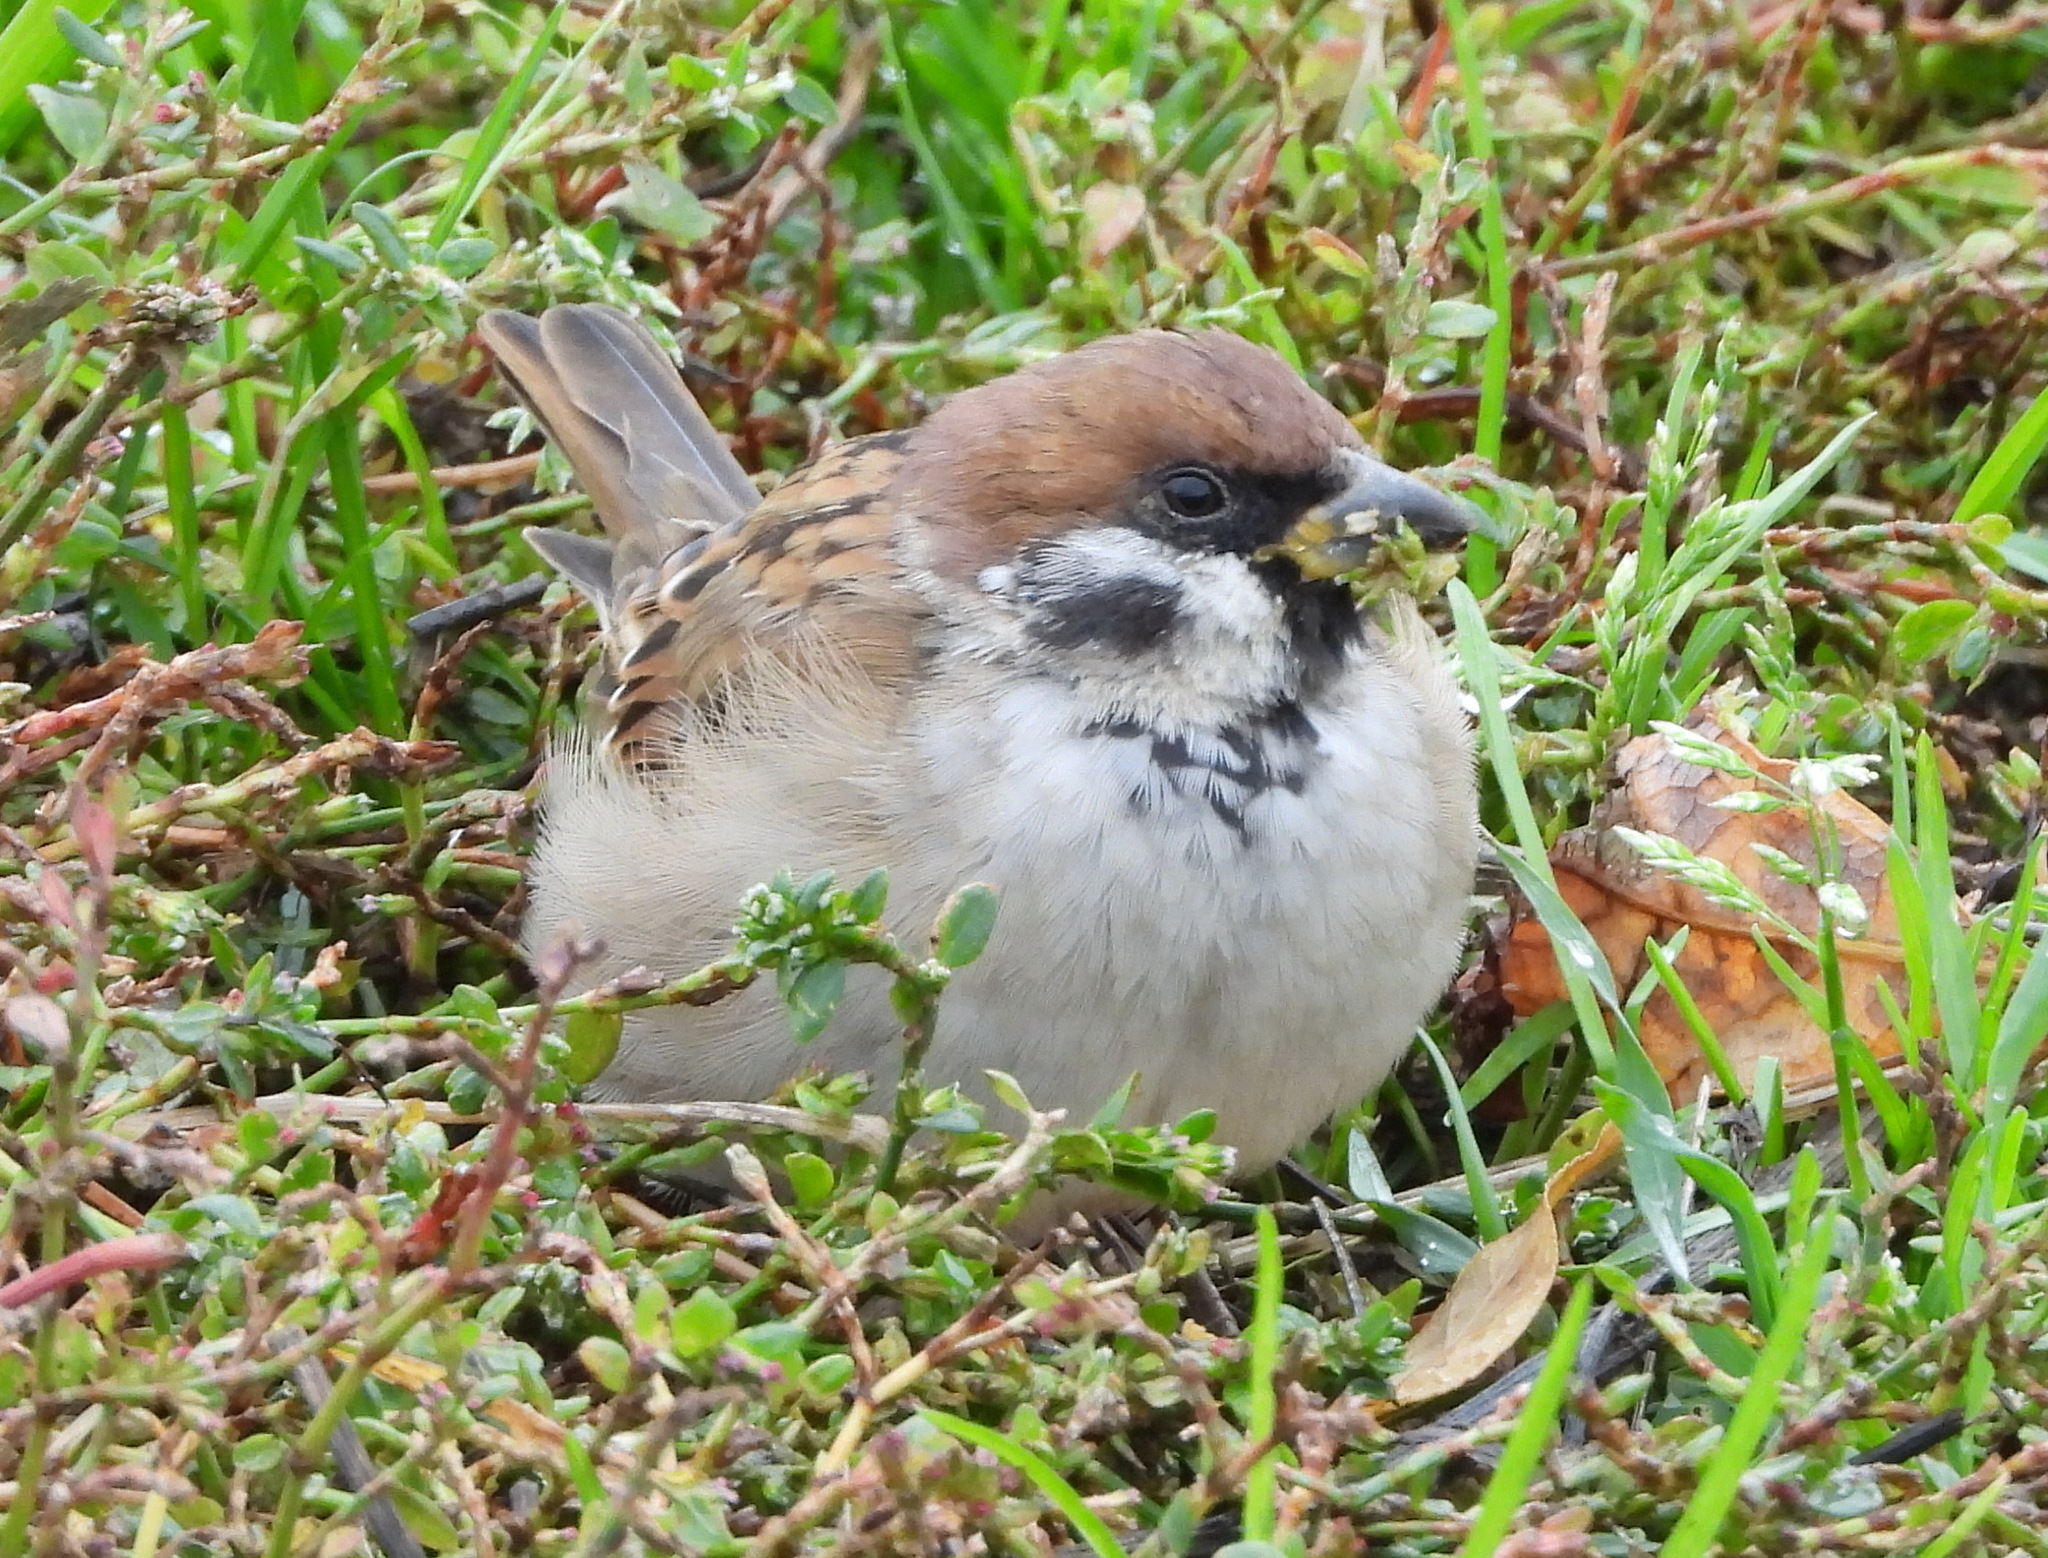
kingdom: Animalia
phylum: Chordata
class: Aves
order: Passeriformes
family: Passeridae
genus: Passer
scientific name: Passer montanus
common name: Eurasian tree sparrow
